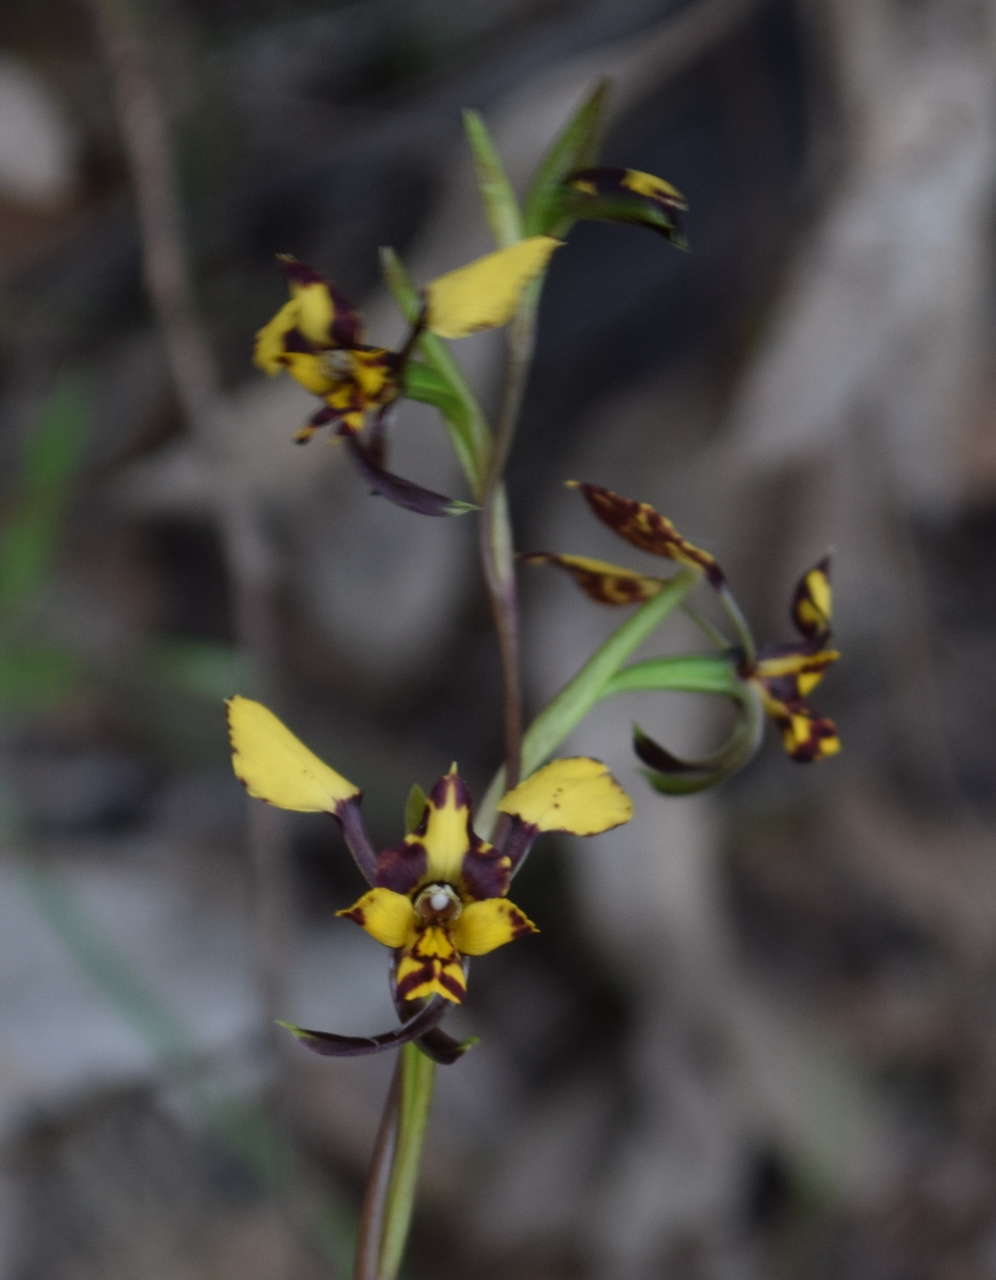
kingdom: Plantae
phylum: Tracheophyta
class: Liliopsida
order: Asparagales
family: Orchidaceae
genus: Diuris
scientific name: Diuris pardina
